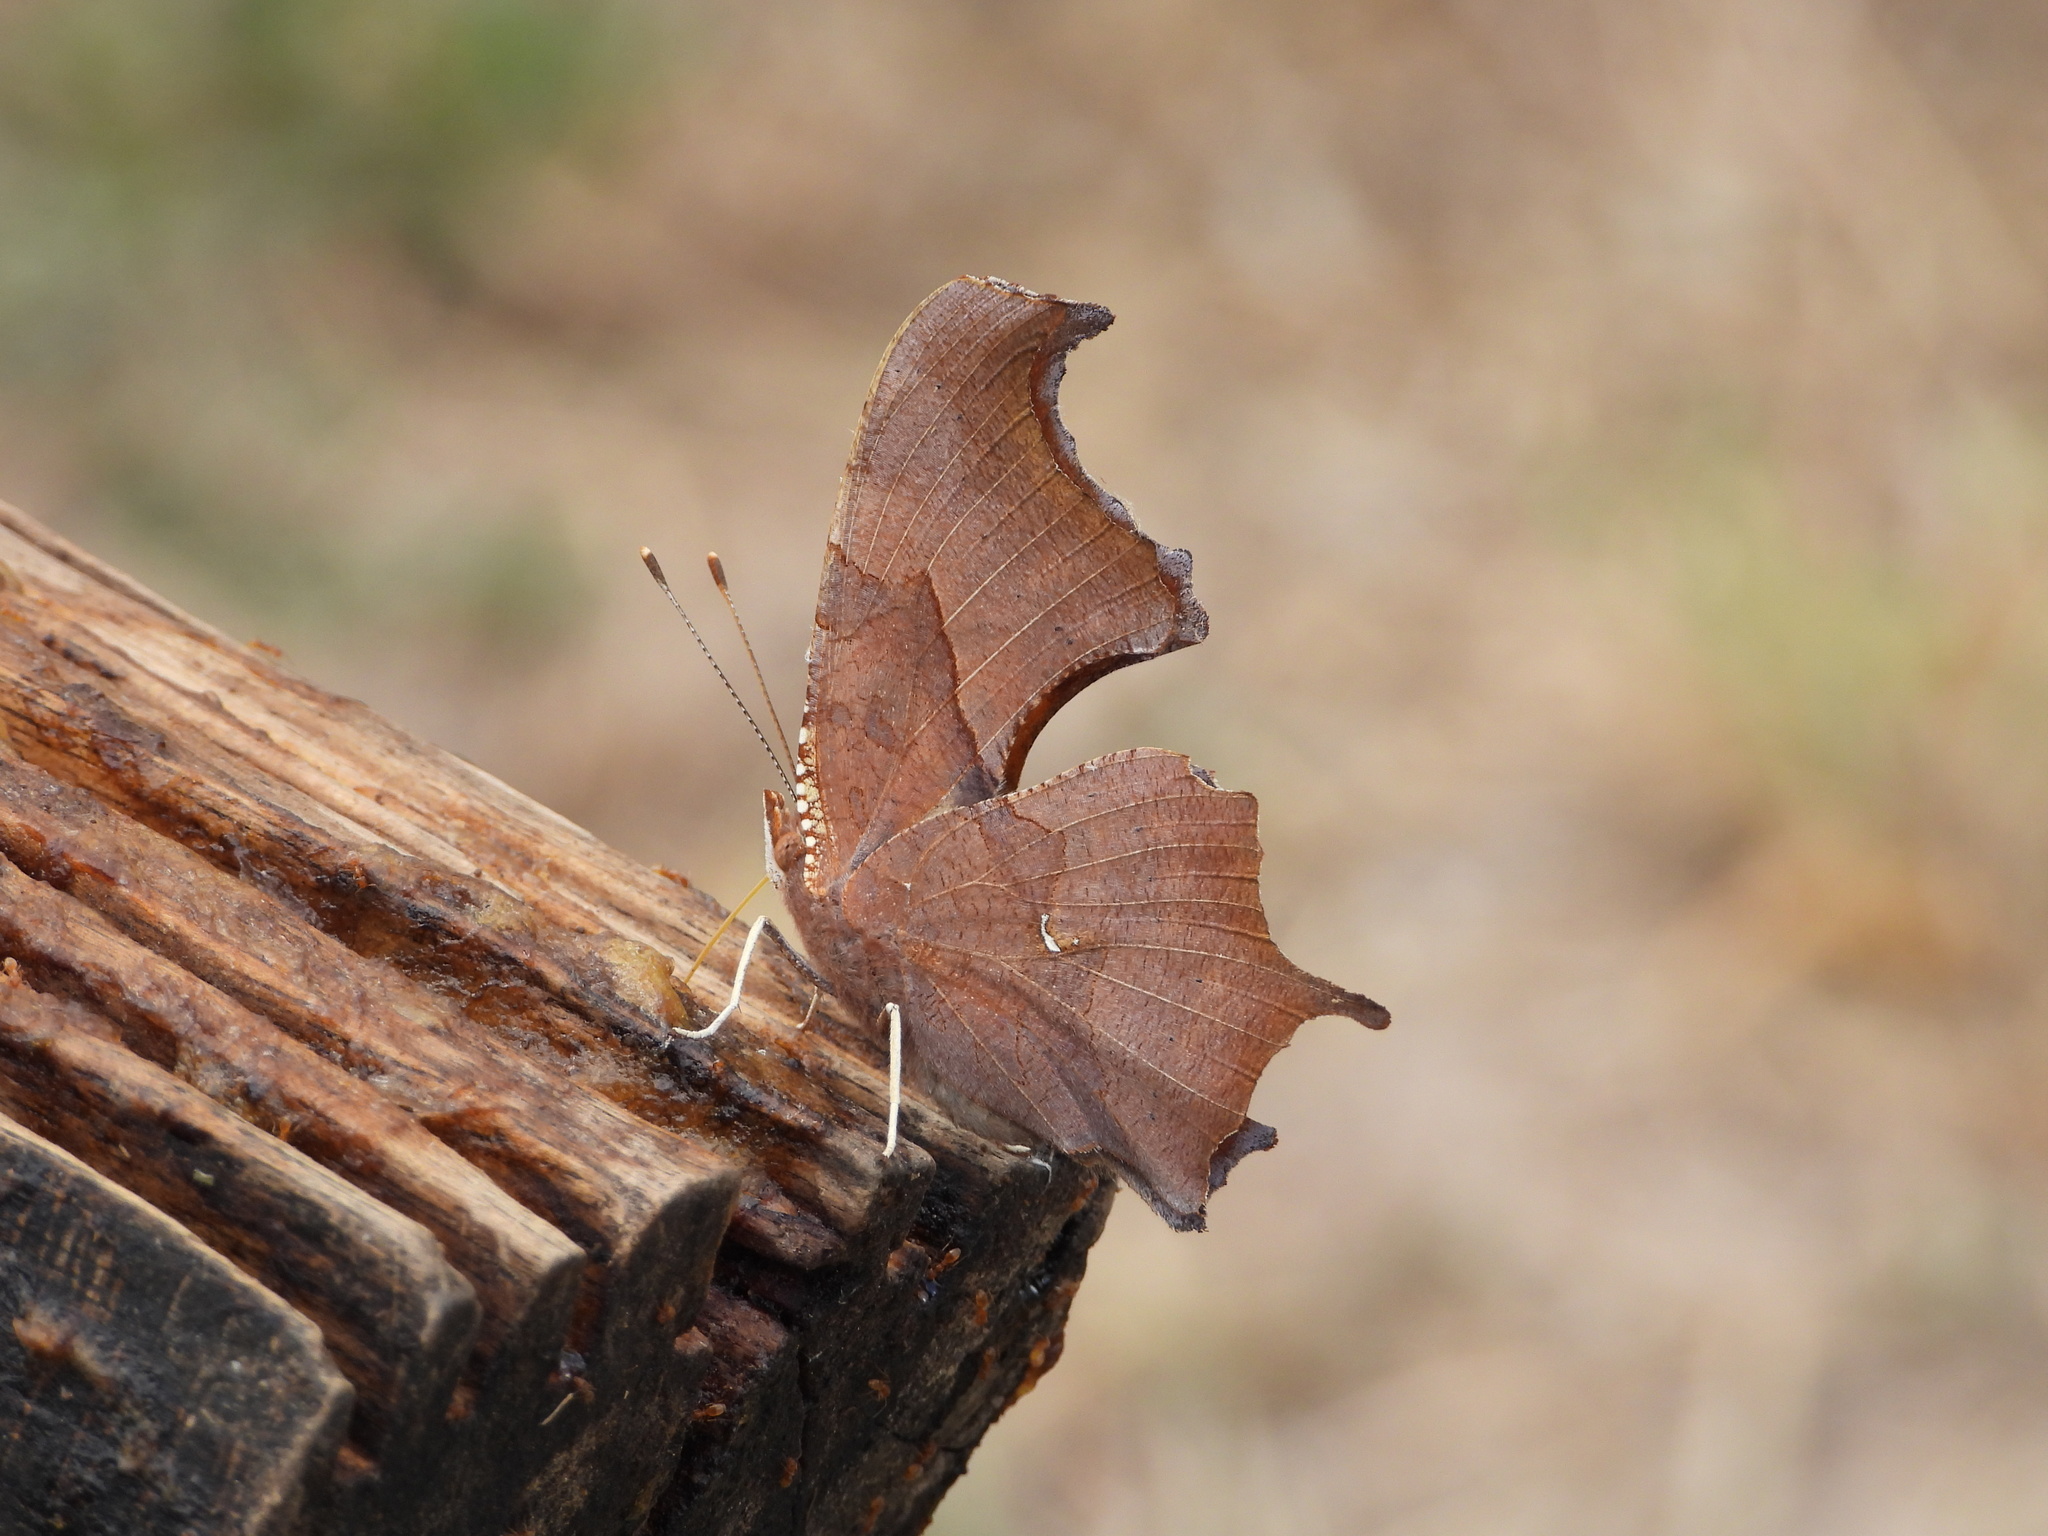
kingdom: Animalia
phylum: Arthropoda
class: Insecta
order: Lepidoptera
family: Nymphalidae
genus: Polygonia
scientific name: Polygonia interrogationis
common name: Question mark
